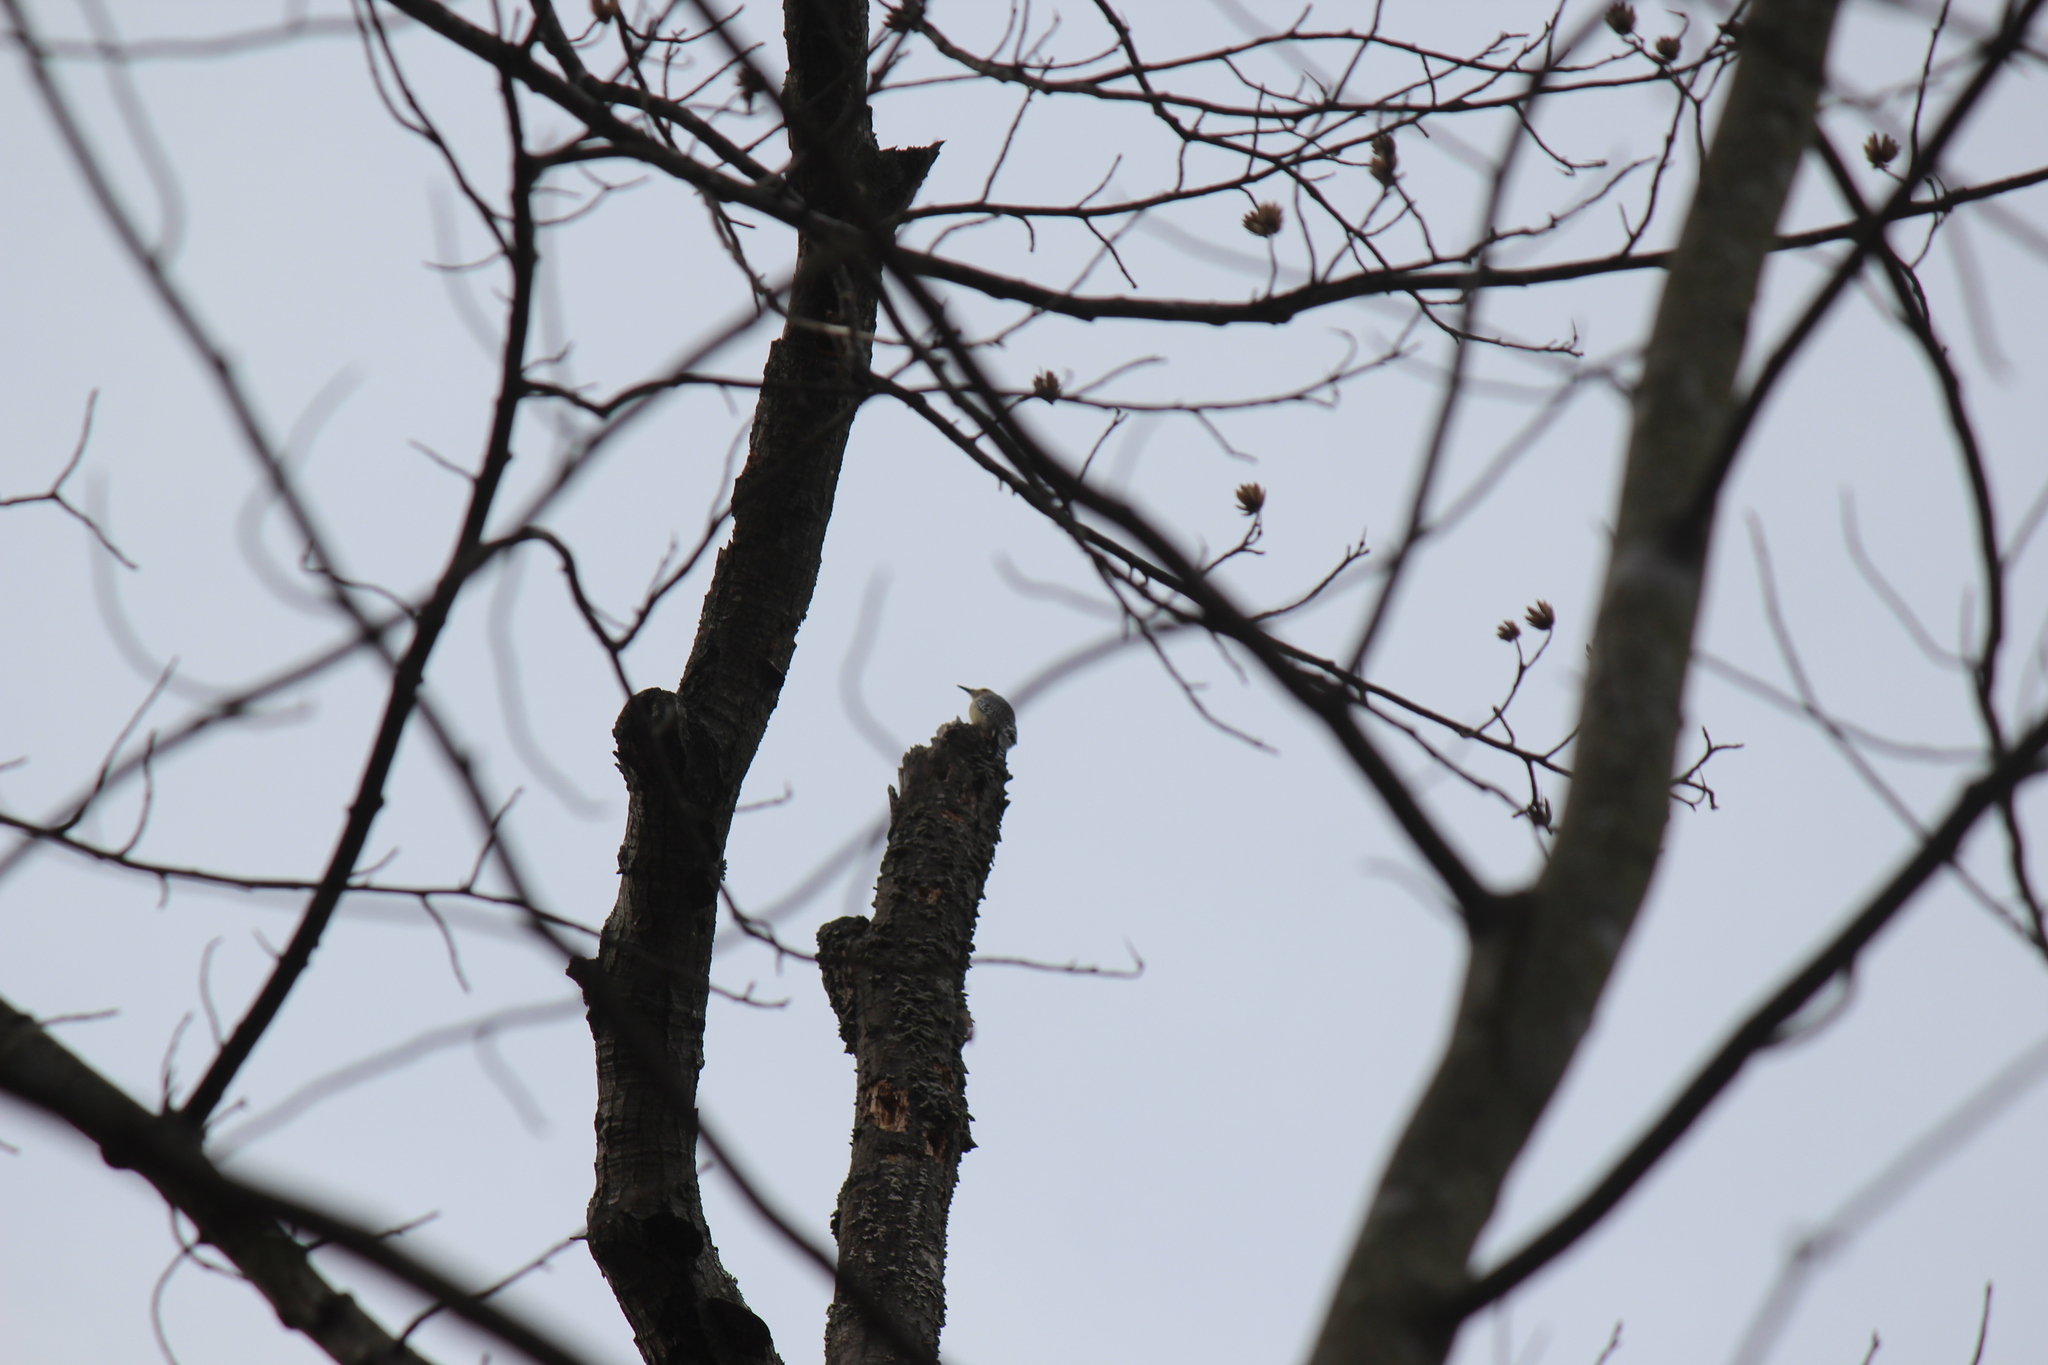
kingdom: Animalia
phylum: Chordata
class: Aves
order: Piciformes
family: Picidae
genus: Melanerpes
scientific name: Melanerpes carolinus
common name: Red-bellied woodpecker
